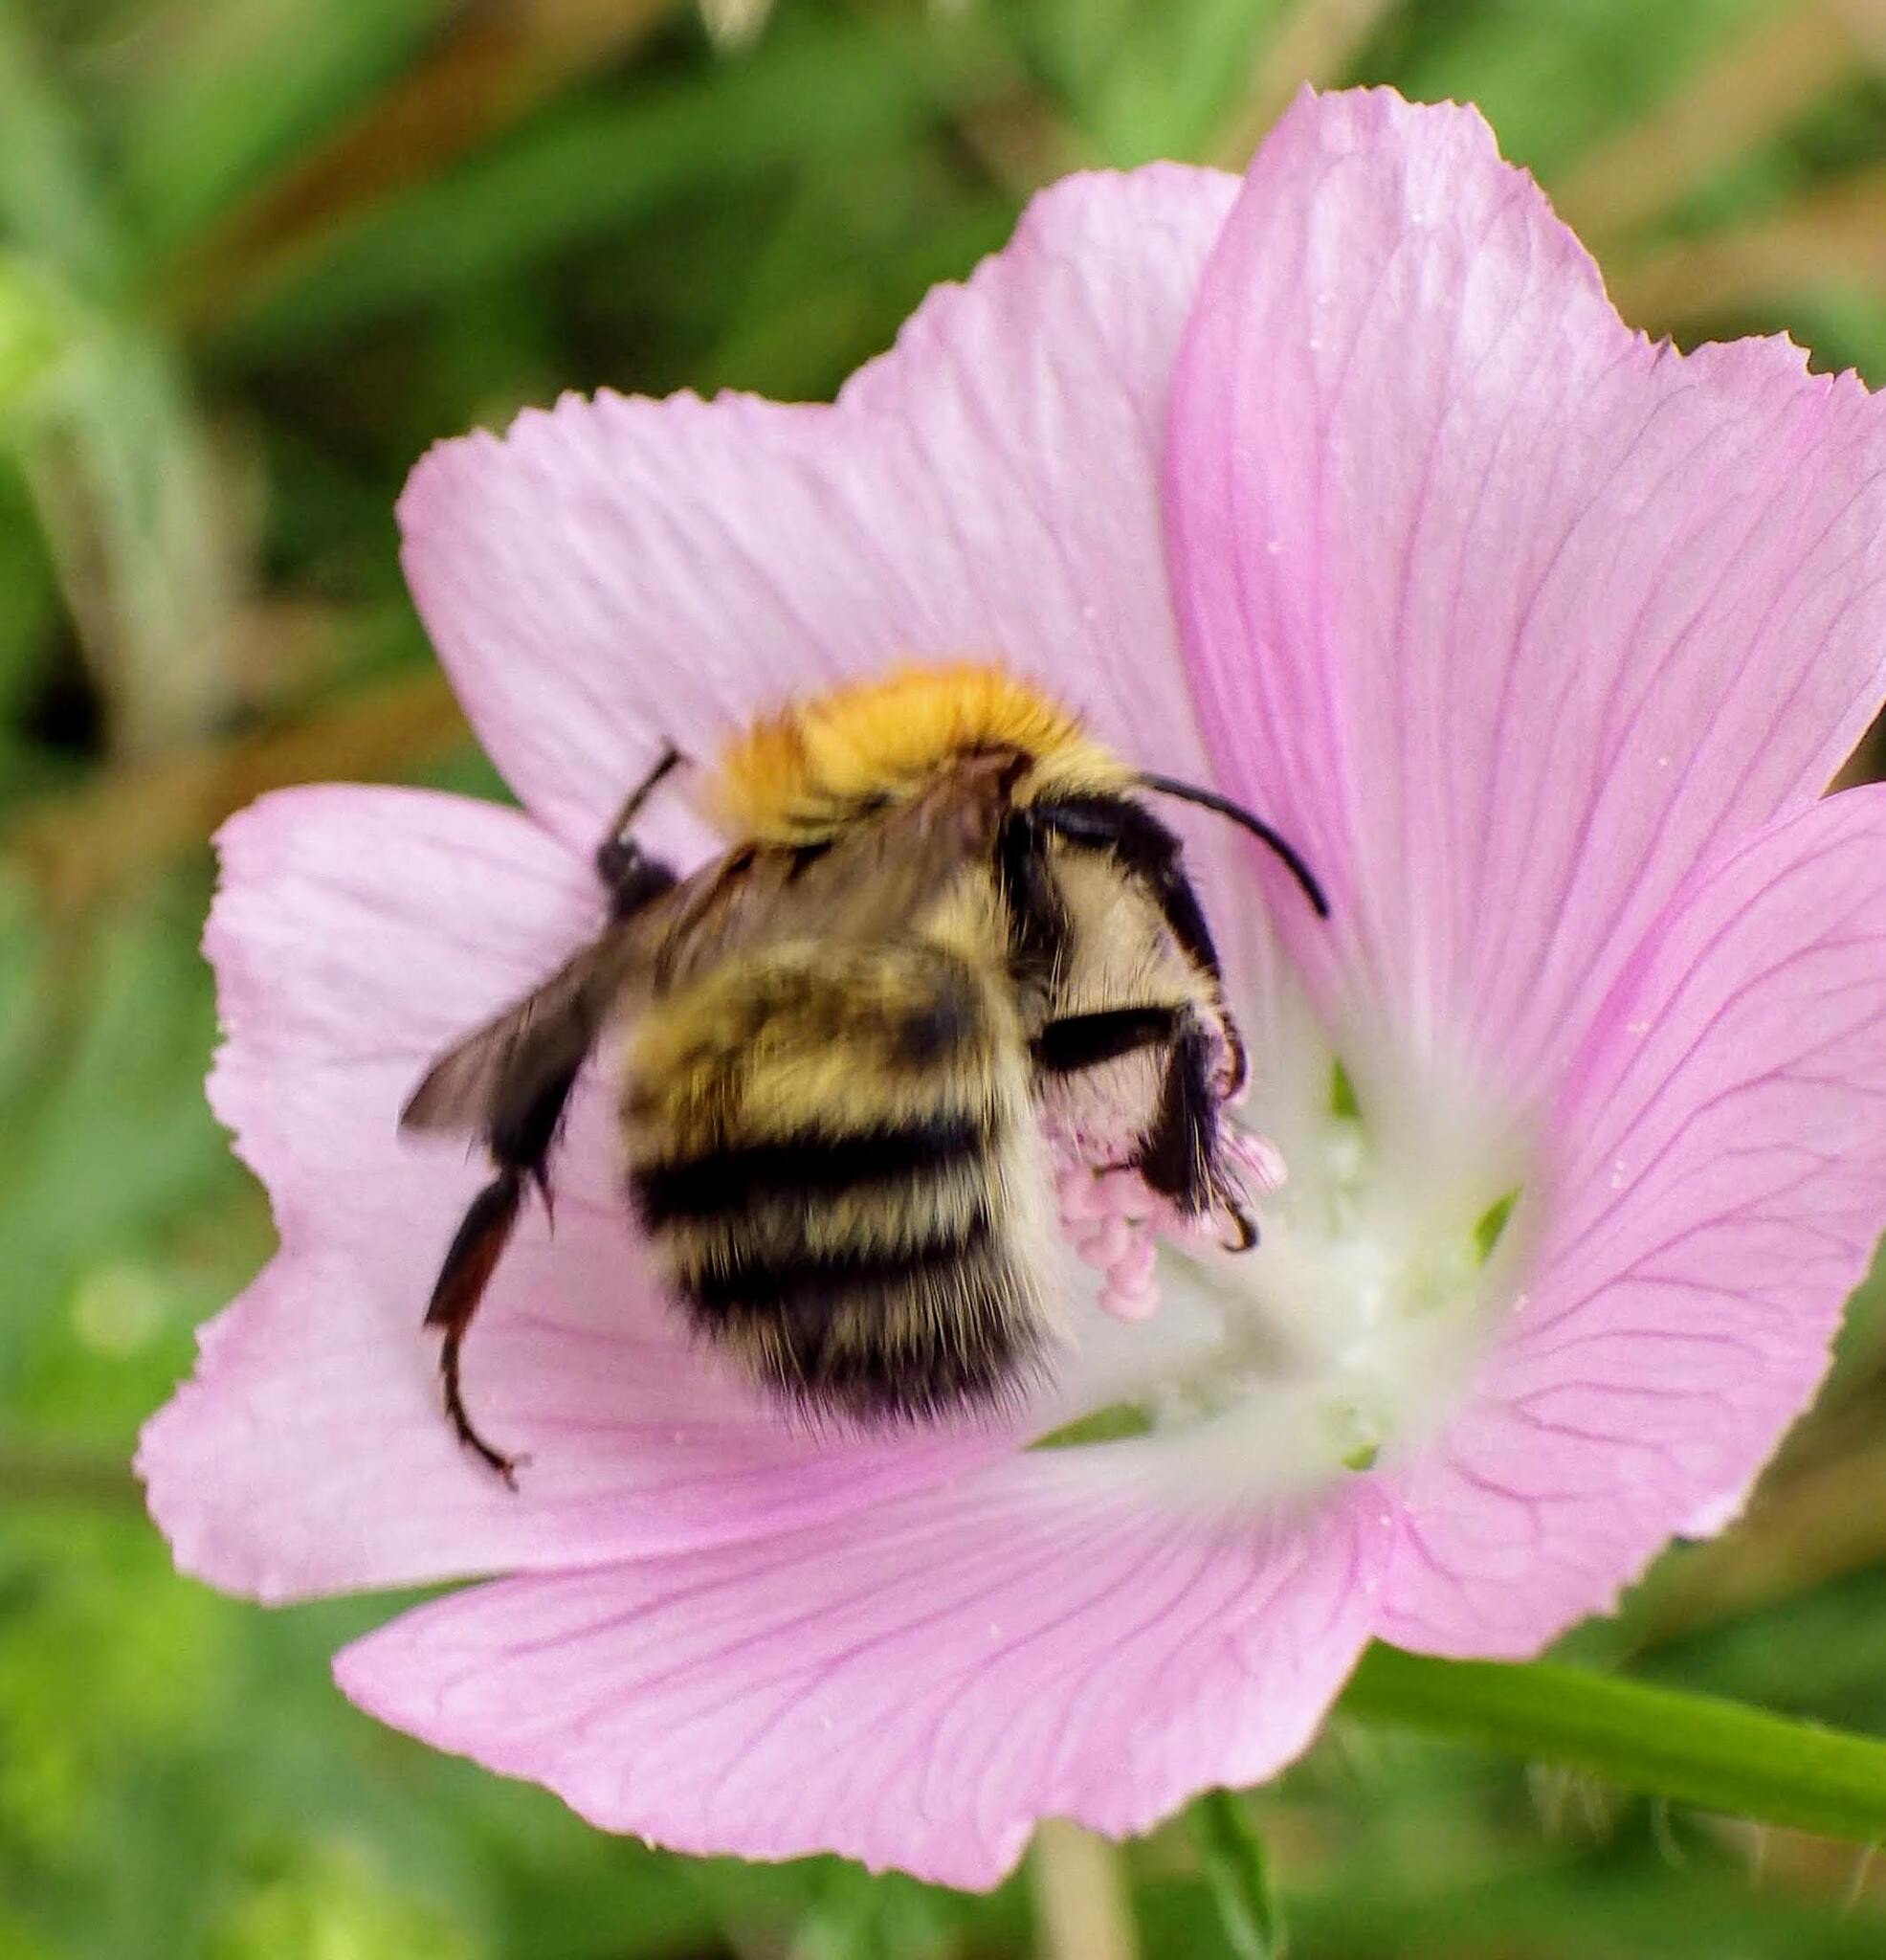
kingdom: Animalia
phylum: Arthropoda
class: Insecta
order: Hymenoptera
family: Apidae
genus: Bombus
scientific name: Bombus pascuorum
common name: Common carder bee
